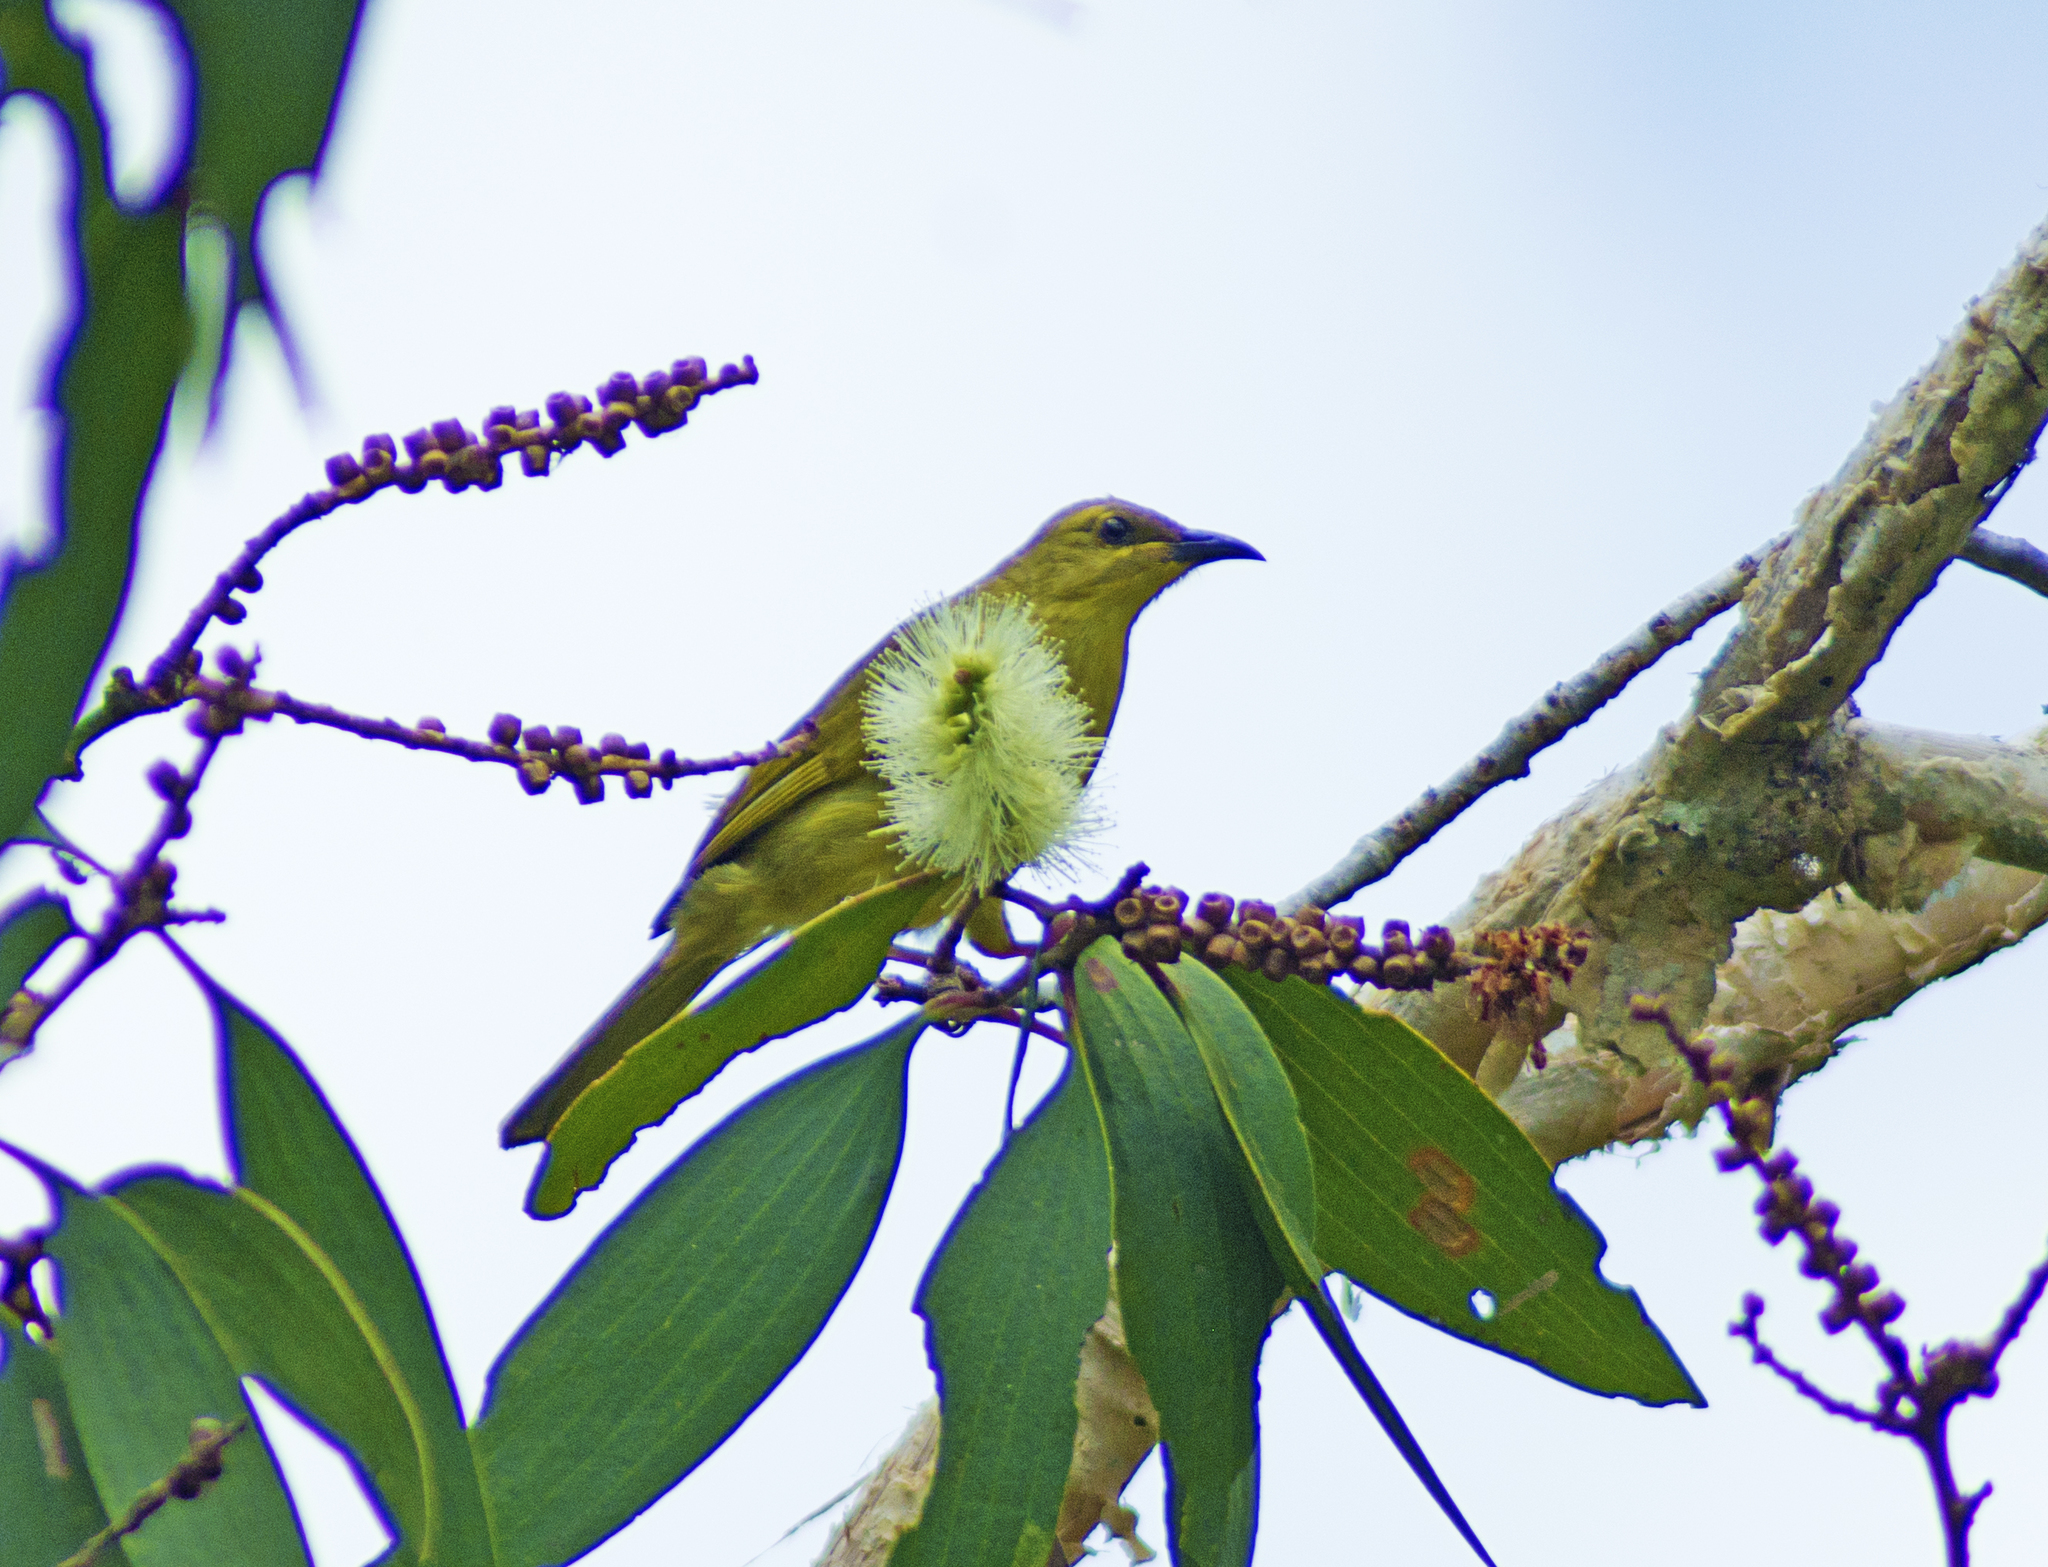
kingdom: Animalia
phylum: Chordata
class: Aves
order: Passeriformes
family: Meliphagidae
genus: Stomiopera
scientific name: Stomiopera flava
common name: Yellow honeyeater
